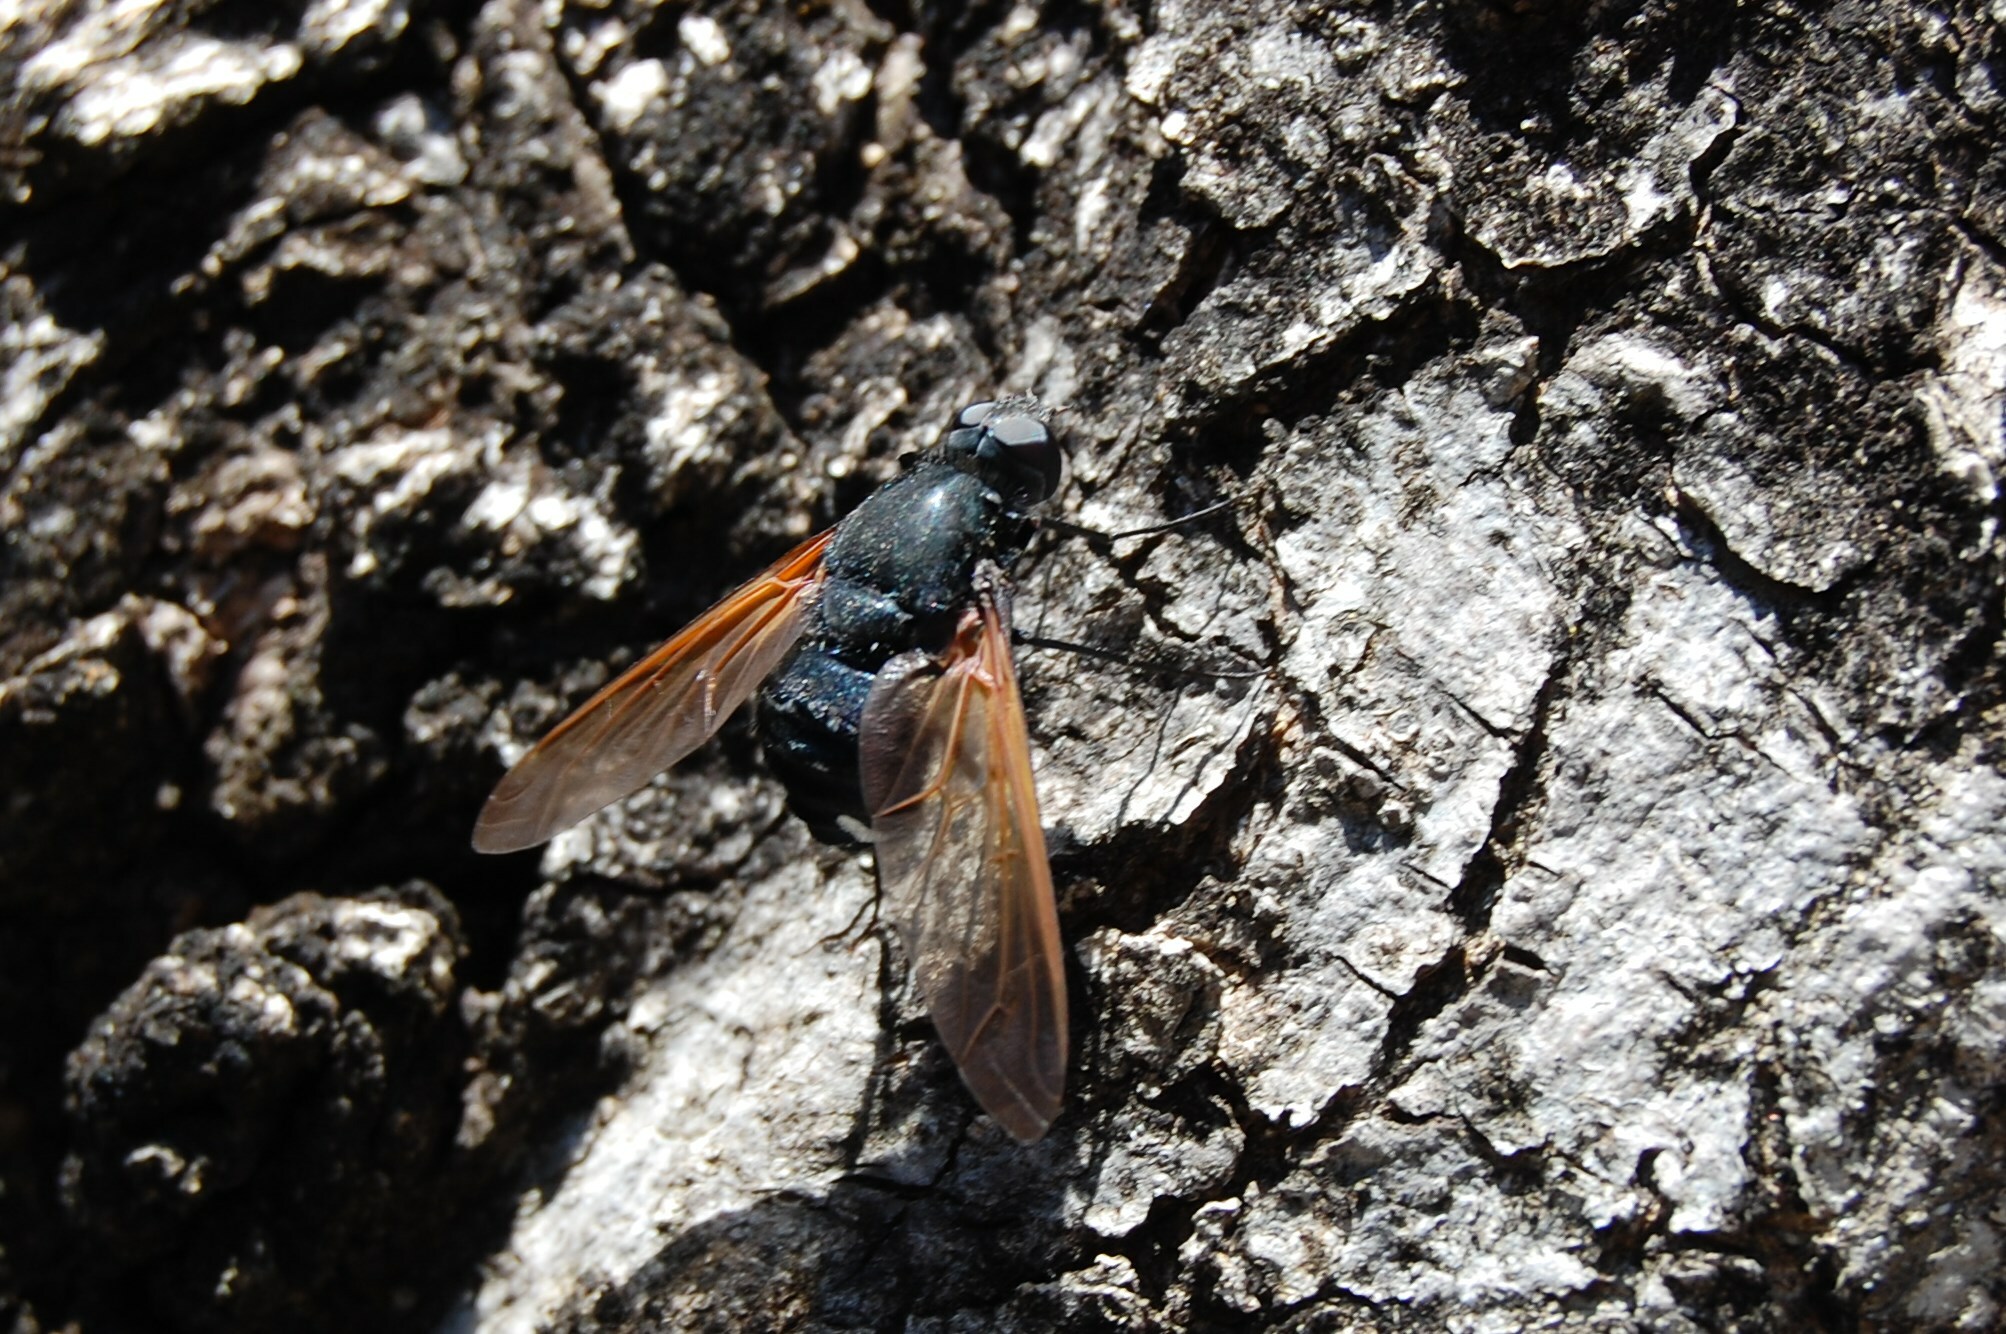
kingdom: Animalia
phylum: Arthropoda
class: Insecta
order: Diptera
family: Bombyliidae
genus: Satyramoeba
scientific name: Satyramoeba hetrusca
